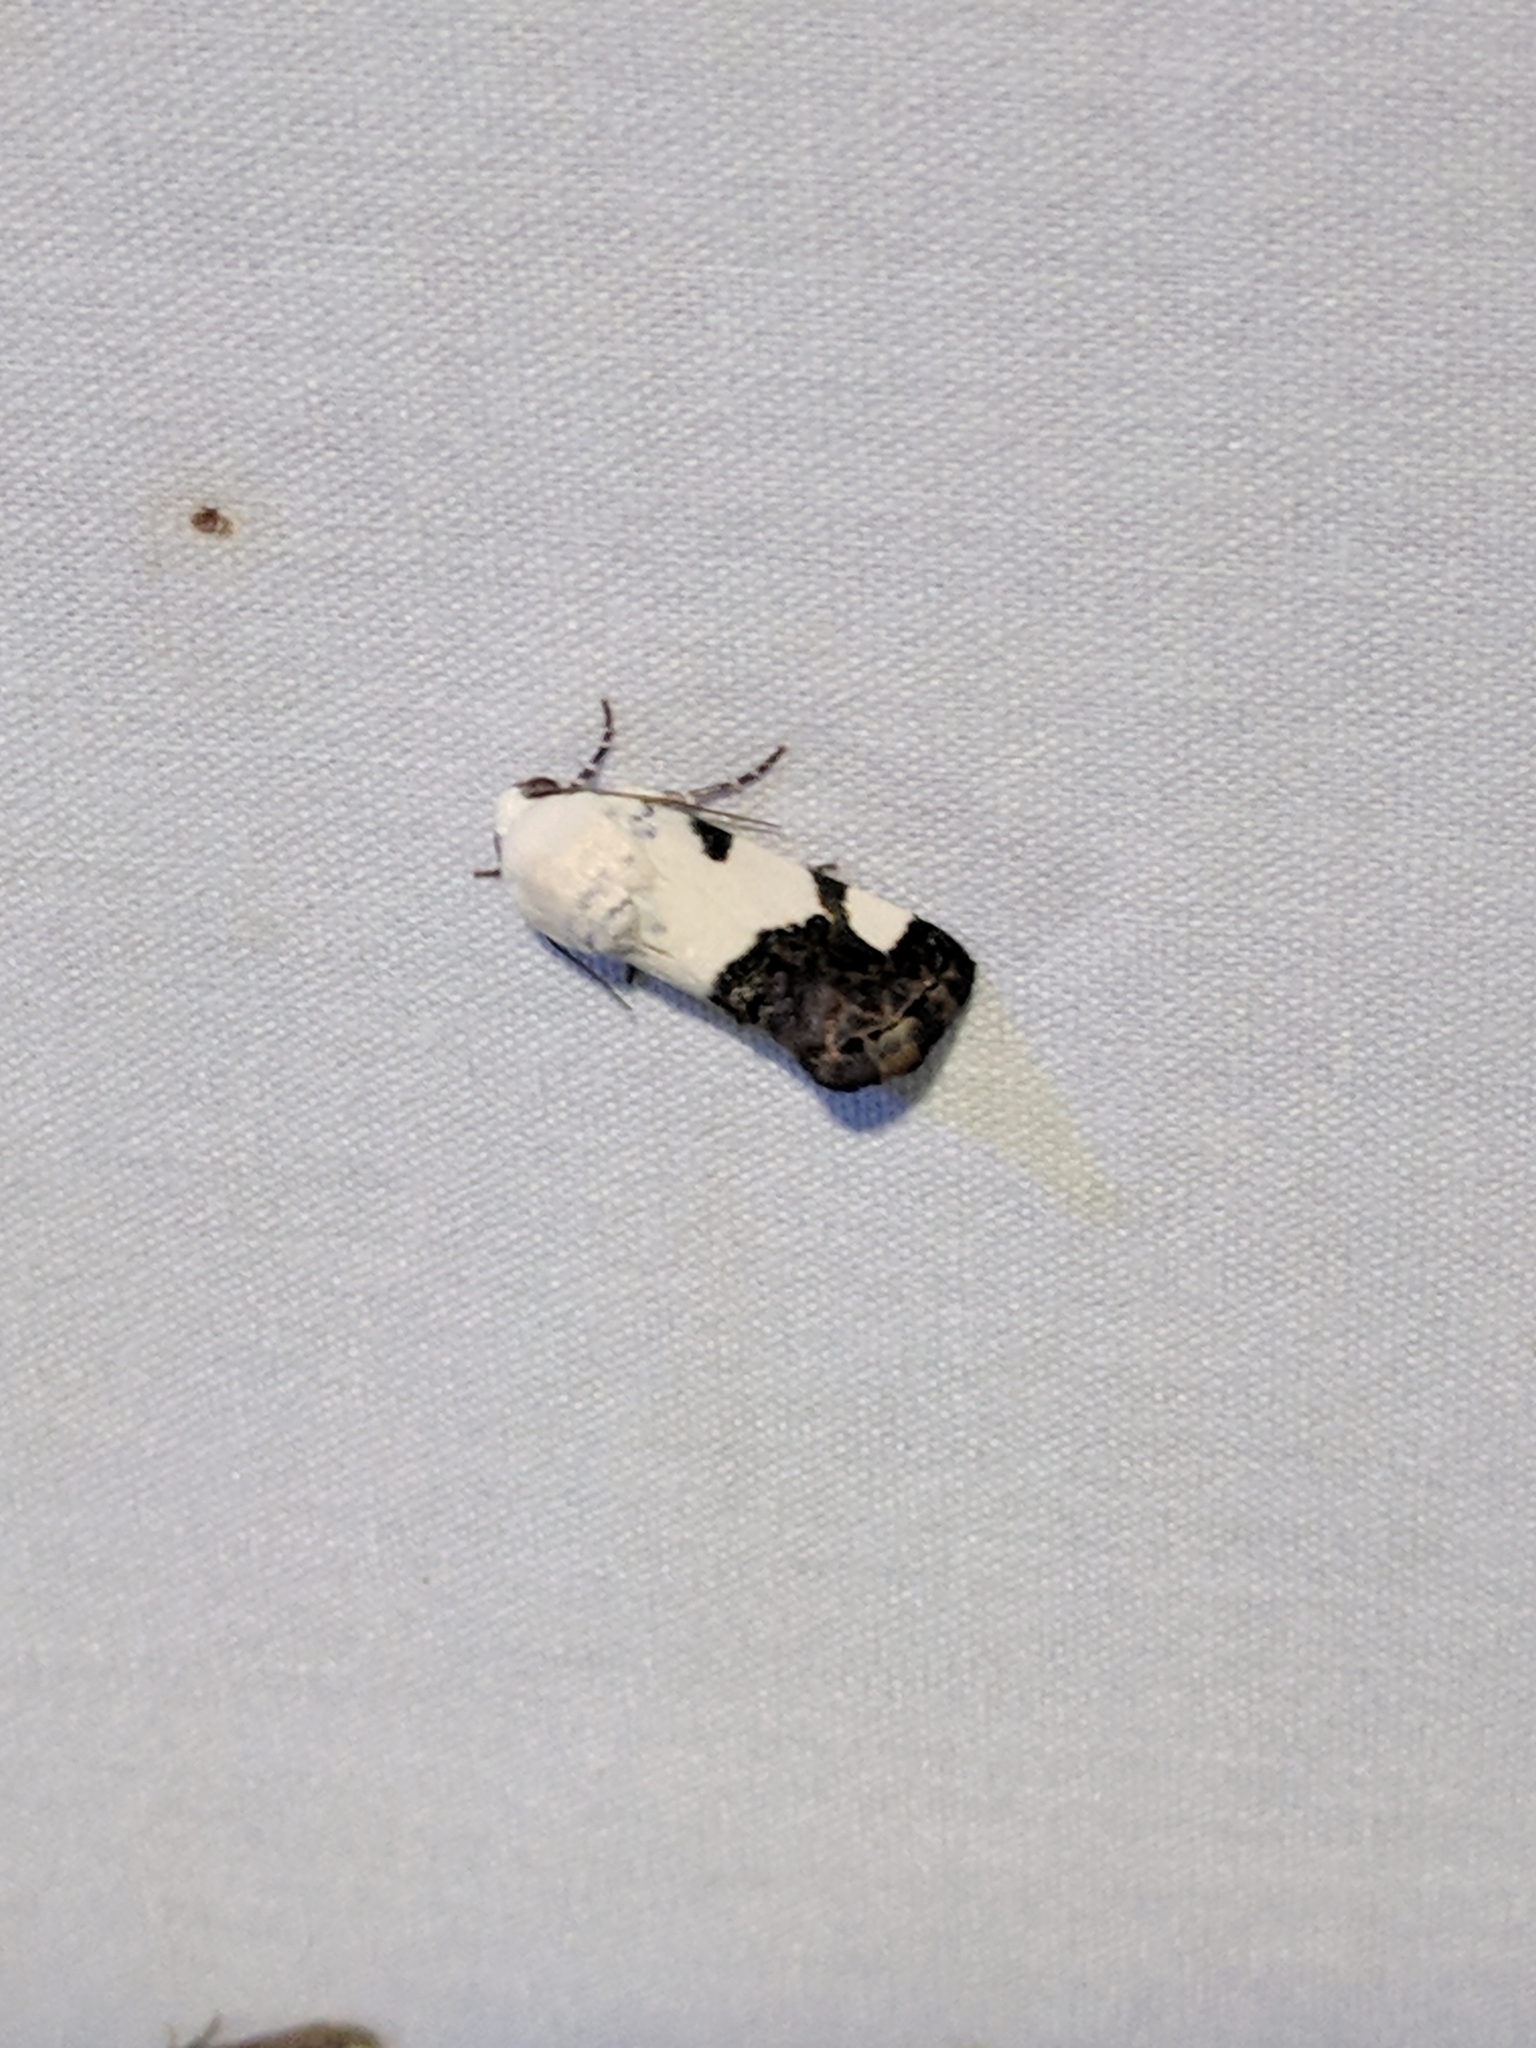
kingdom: Animalia
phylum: Arthropoda
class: Insecta
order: Lepidoptera
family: Noctuidae
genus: Acontia
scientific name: Acontia quadriplaga
